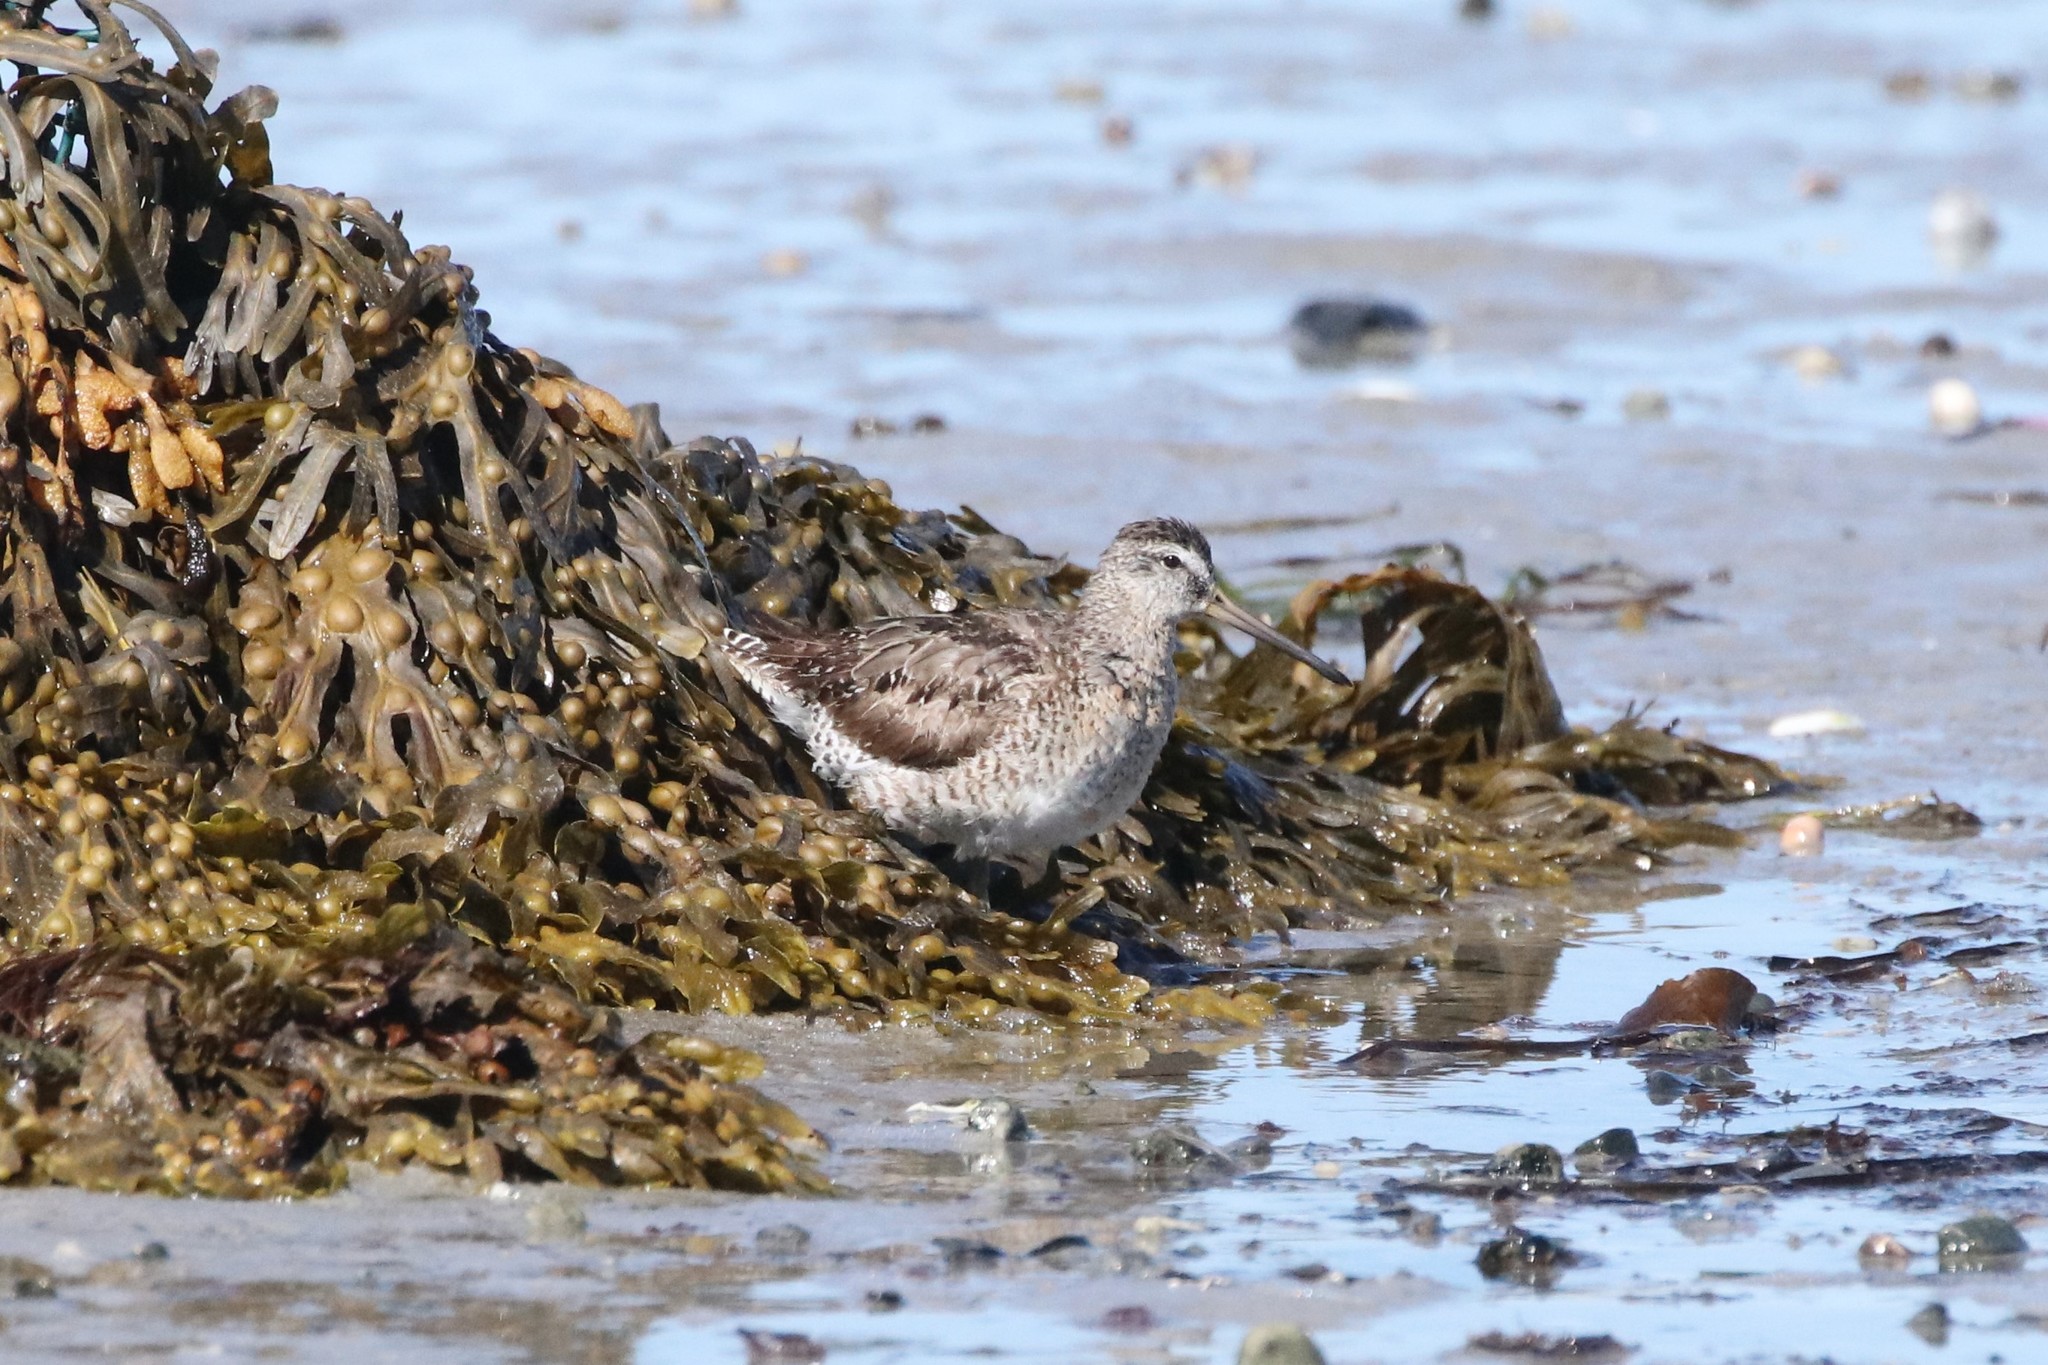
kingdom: Animalia
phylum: Chordata
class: Aves
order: Charadriiformes
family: Scolopacidae
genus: Limnodromus
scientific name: Limnodromus griseus
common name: Short-billed dowitcher
